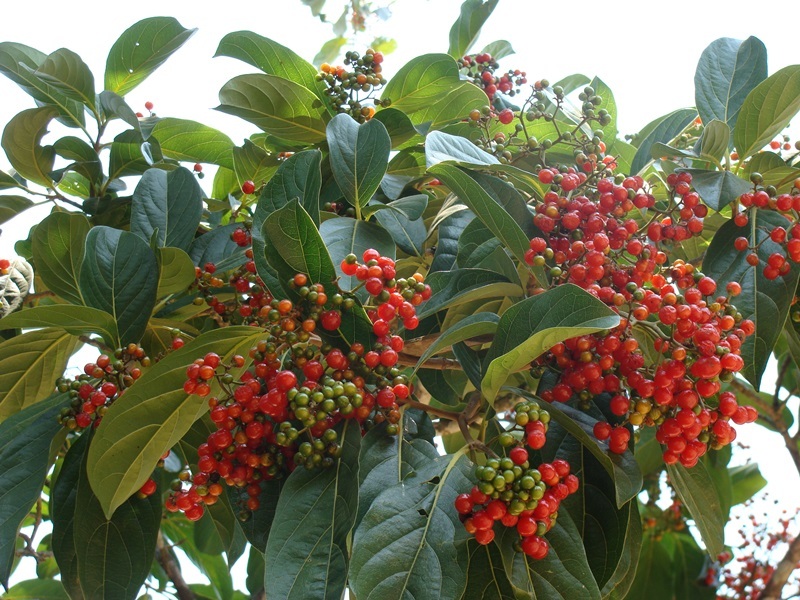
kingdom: Plantae
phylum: Tracheophyta
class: Magnoliopsida
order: Boraginales
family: Cordiaceae
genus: Cordia
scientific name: Cordia collococca
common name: Clammy cherry
